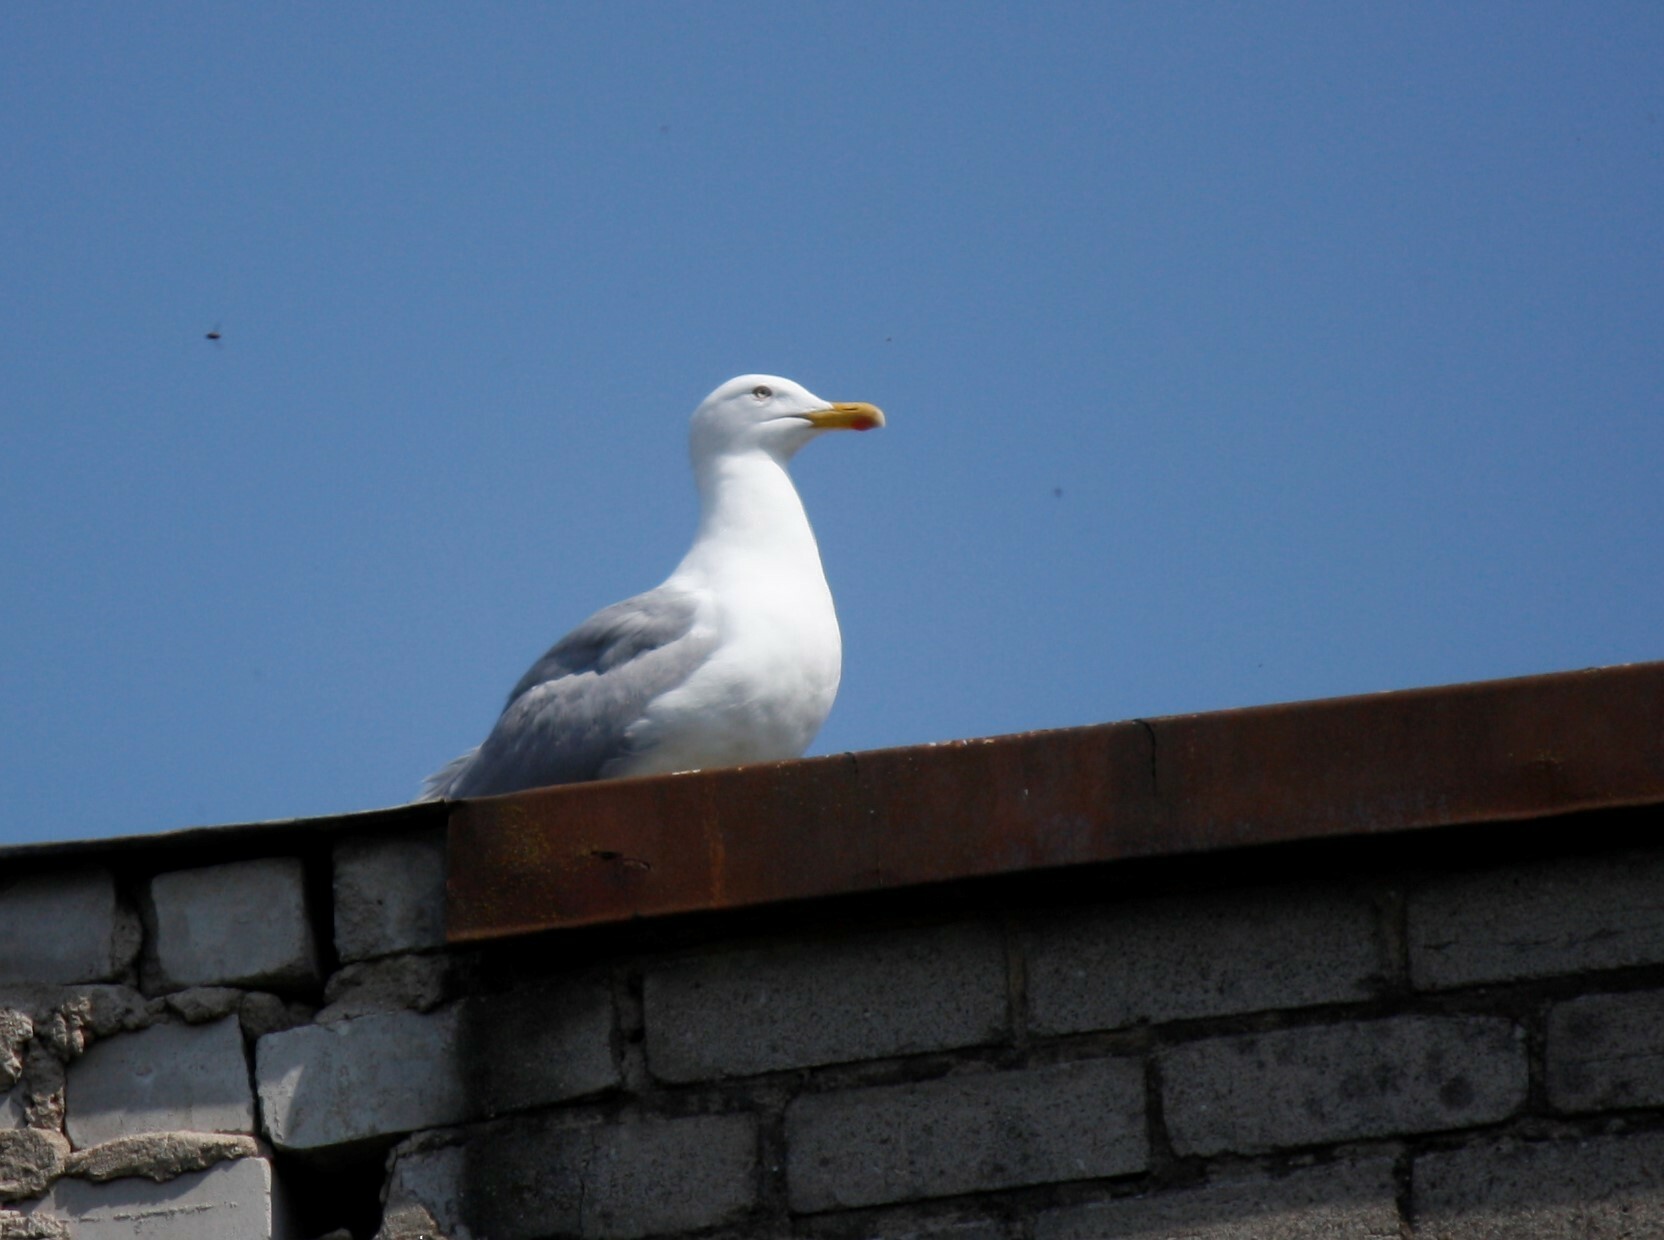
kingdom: Animalia
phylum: Chordata
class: Aves
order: Charadriiformes
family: Laridae
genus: Larus
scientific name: Larus argentatus
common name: Herring gull
